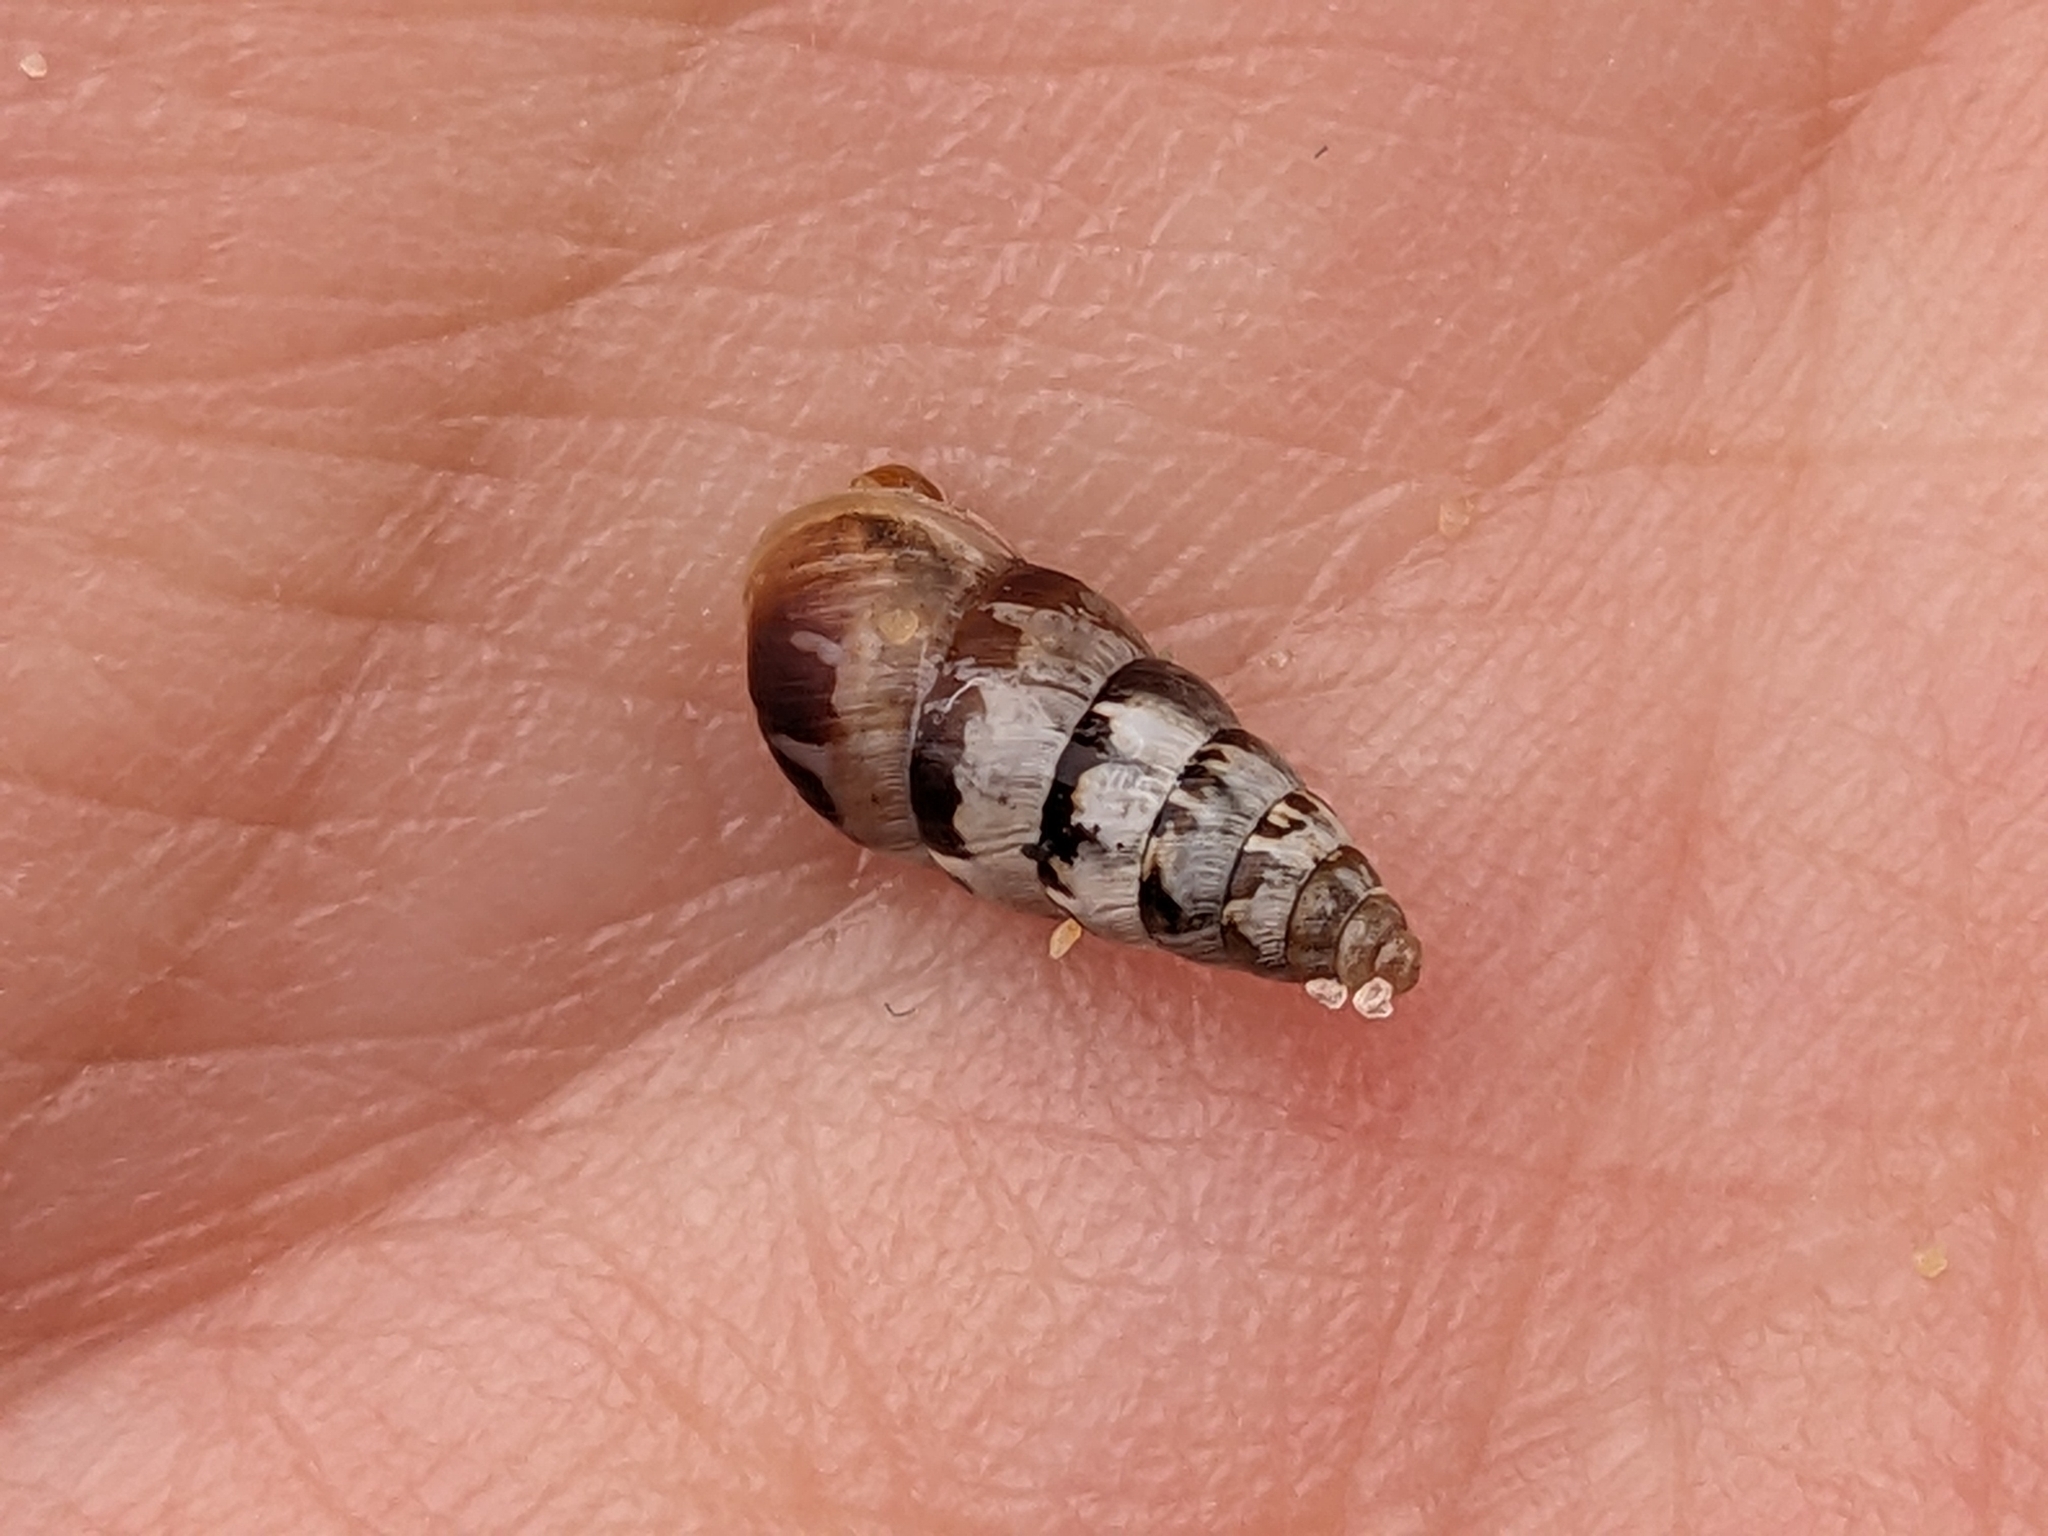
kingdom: Animalia
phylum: Mollusca
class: Gastropoda
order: Stylommatophora
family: Geomitridae
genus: Cochlicella
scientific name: Cochlicella acuta
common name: Pointed snail
